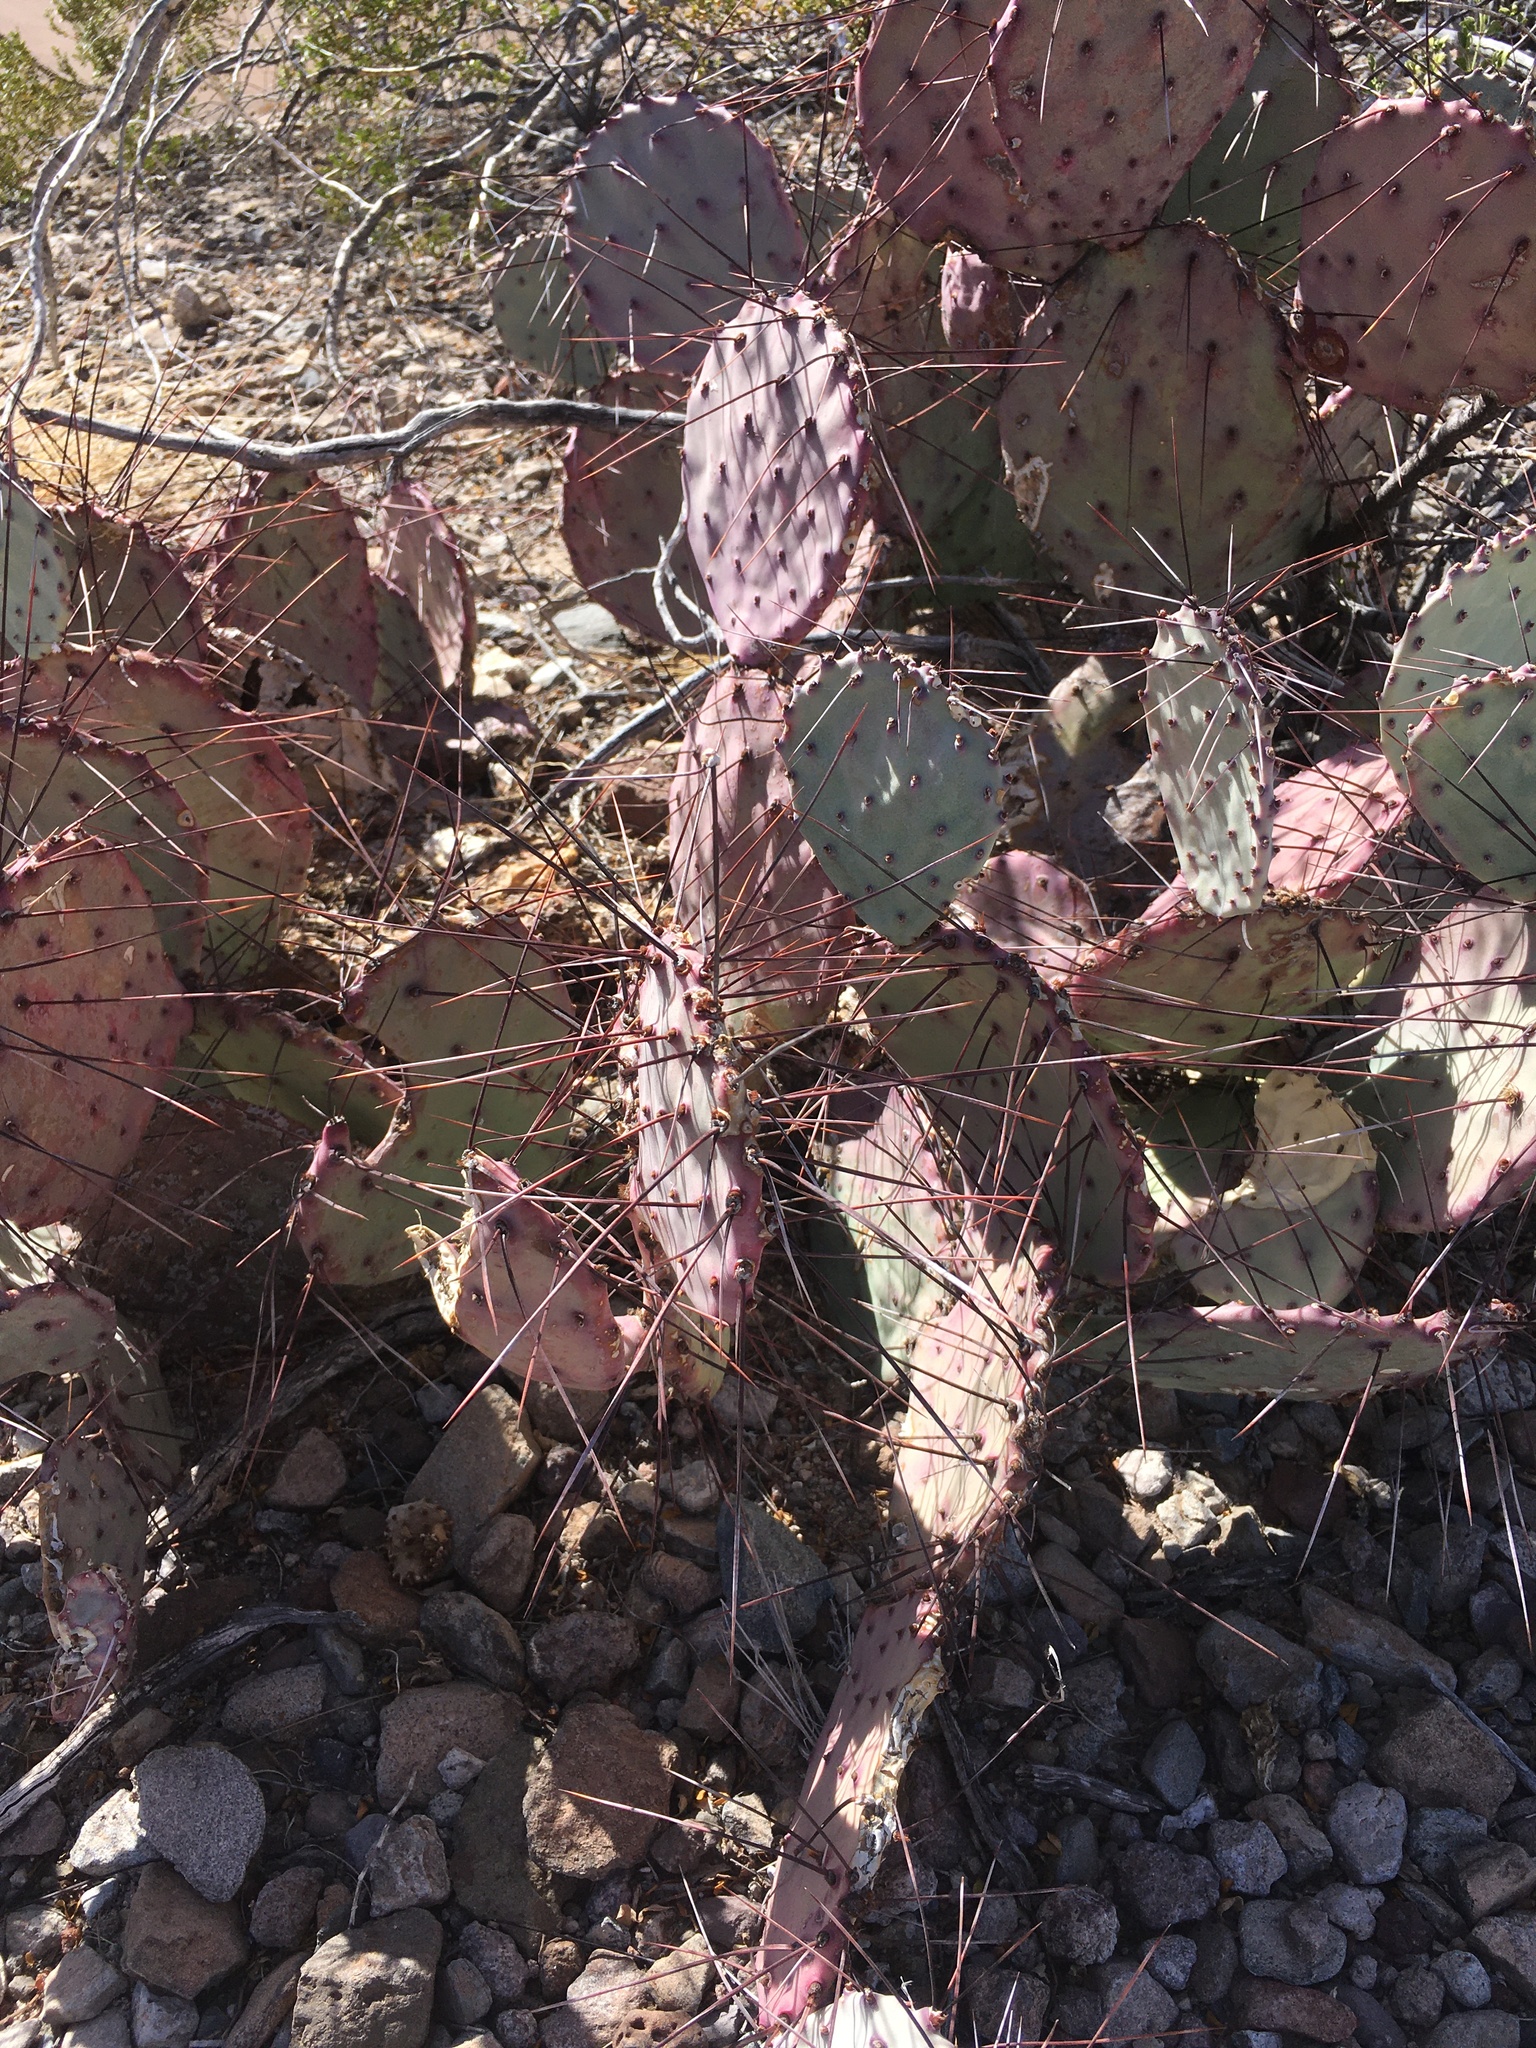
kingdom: Plantae
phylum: Tracheophyta
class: Magnoliopsida
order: Caryophyllales
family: Cactaceae
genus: Opuntia
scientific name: Opuntia phaeacantha
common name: New mexico prickly-pear
